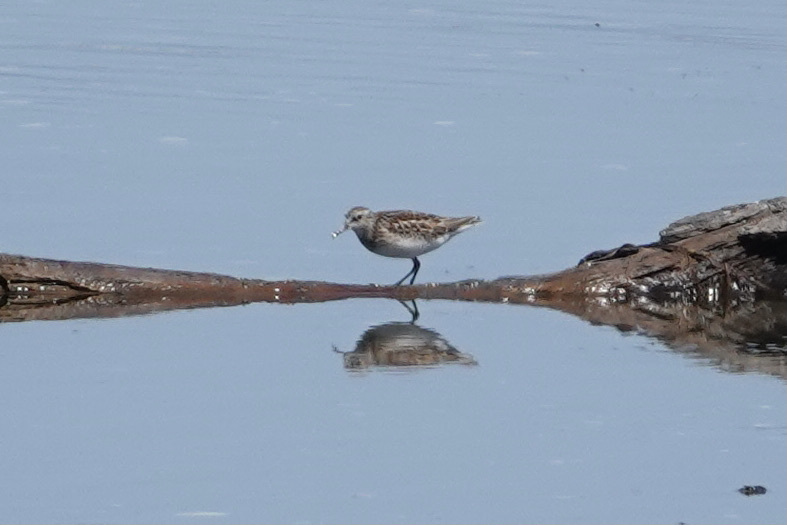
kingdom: Animalia
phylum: Chordata
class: Aves
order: Charadriiformes
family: Scolopacidae
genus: Calidris
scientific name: Calidris minutilla
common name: Least sandpiper
